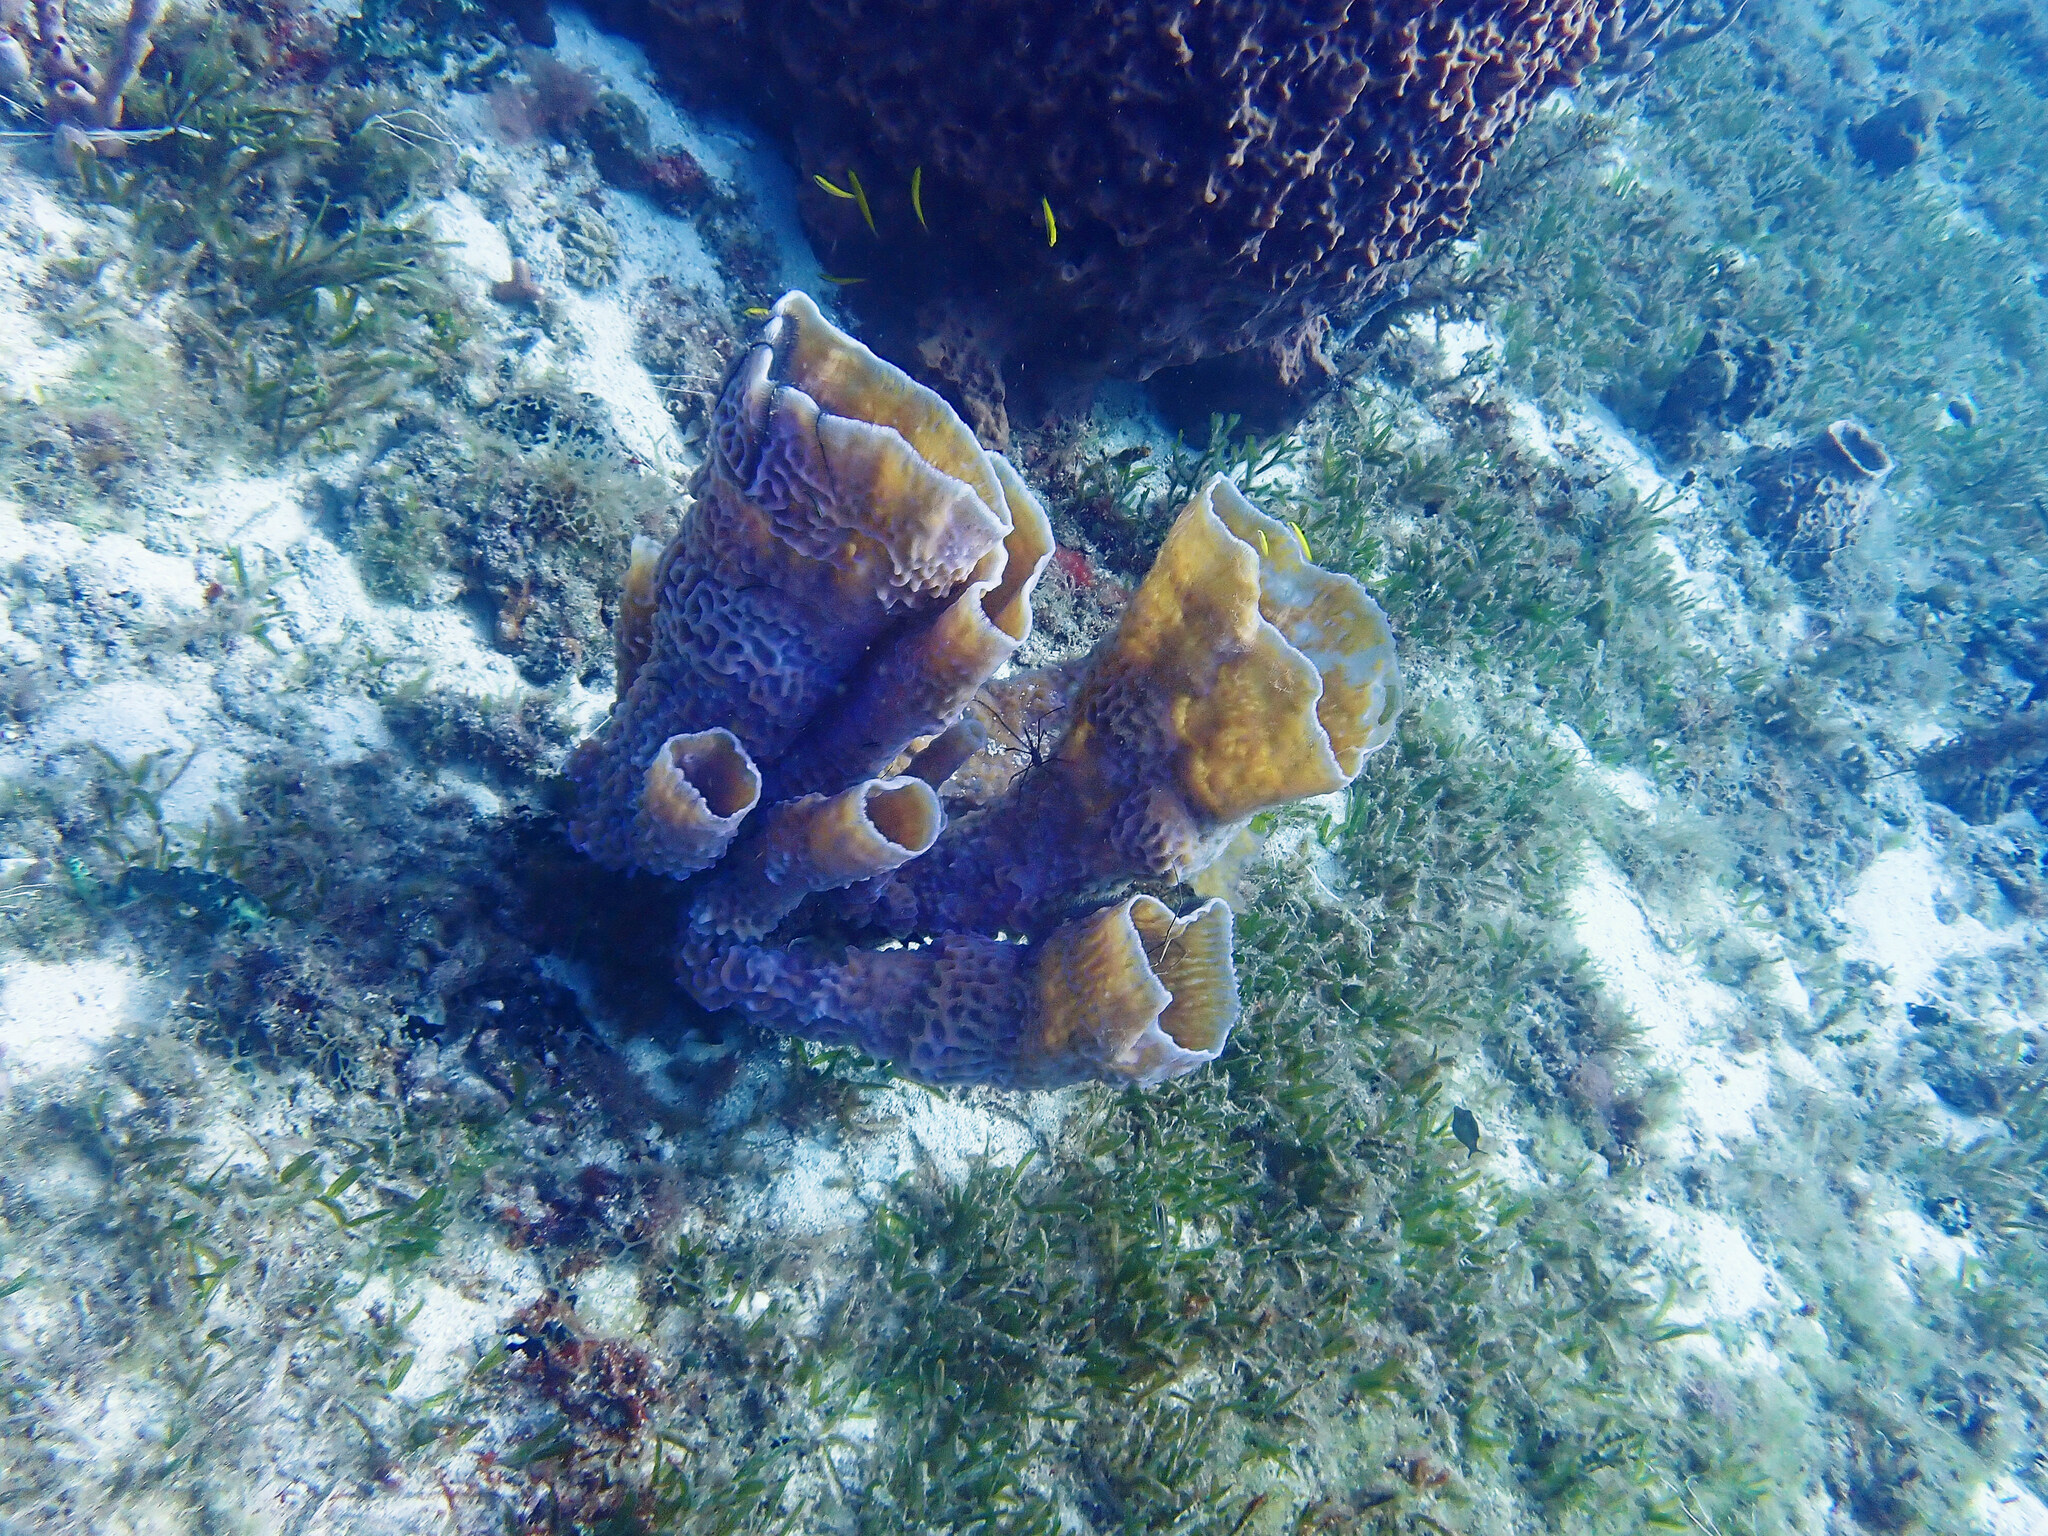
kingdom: Animalia
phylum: Porifera
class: Demospongiae
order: Haplosclerida
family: Callyspongiidae
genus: Callyspongia
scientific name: Callyspongia plicifera
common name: Azure vase sponge
